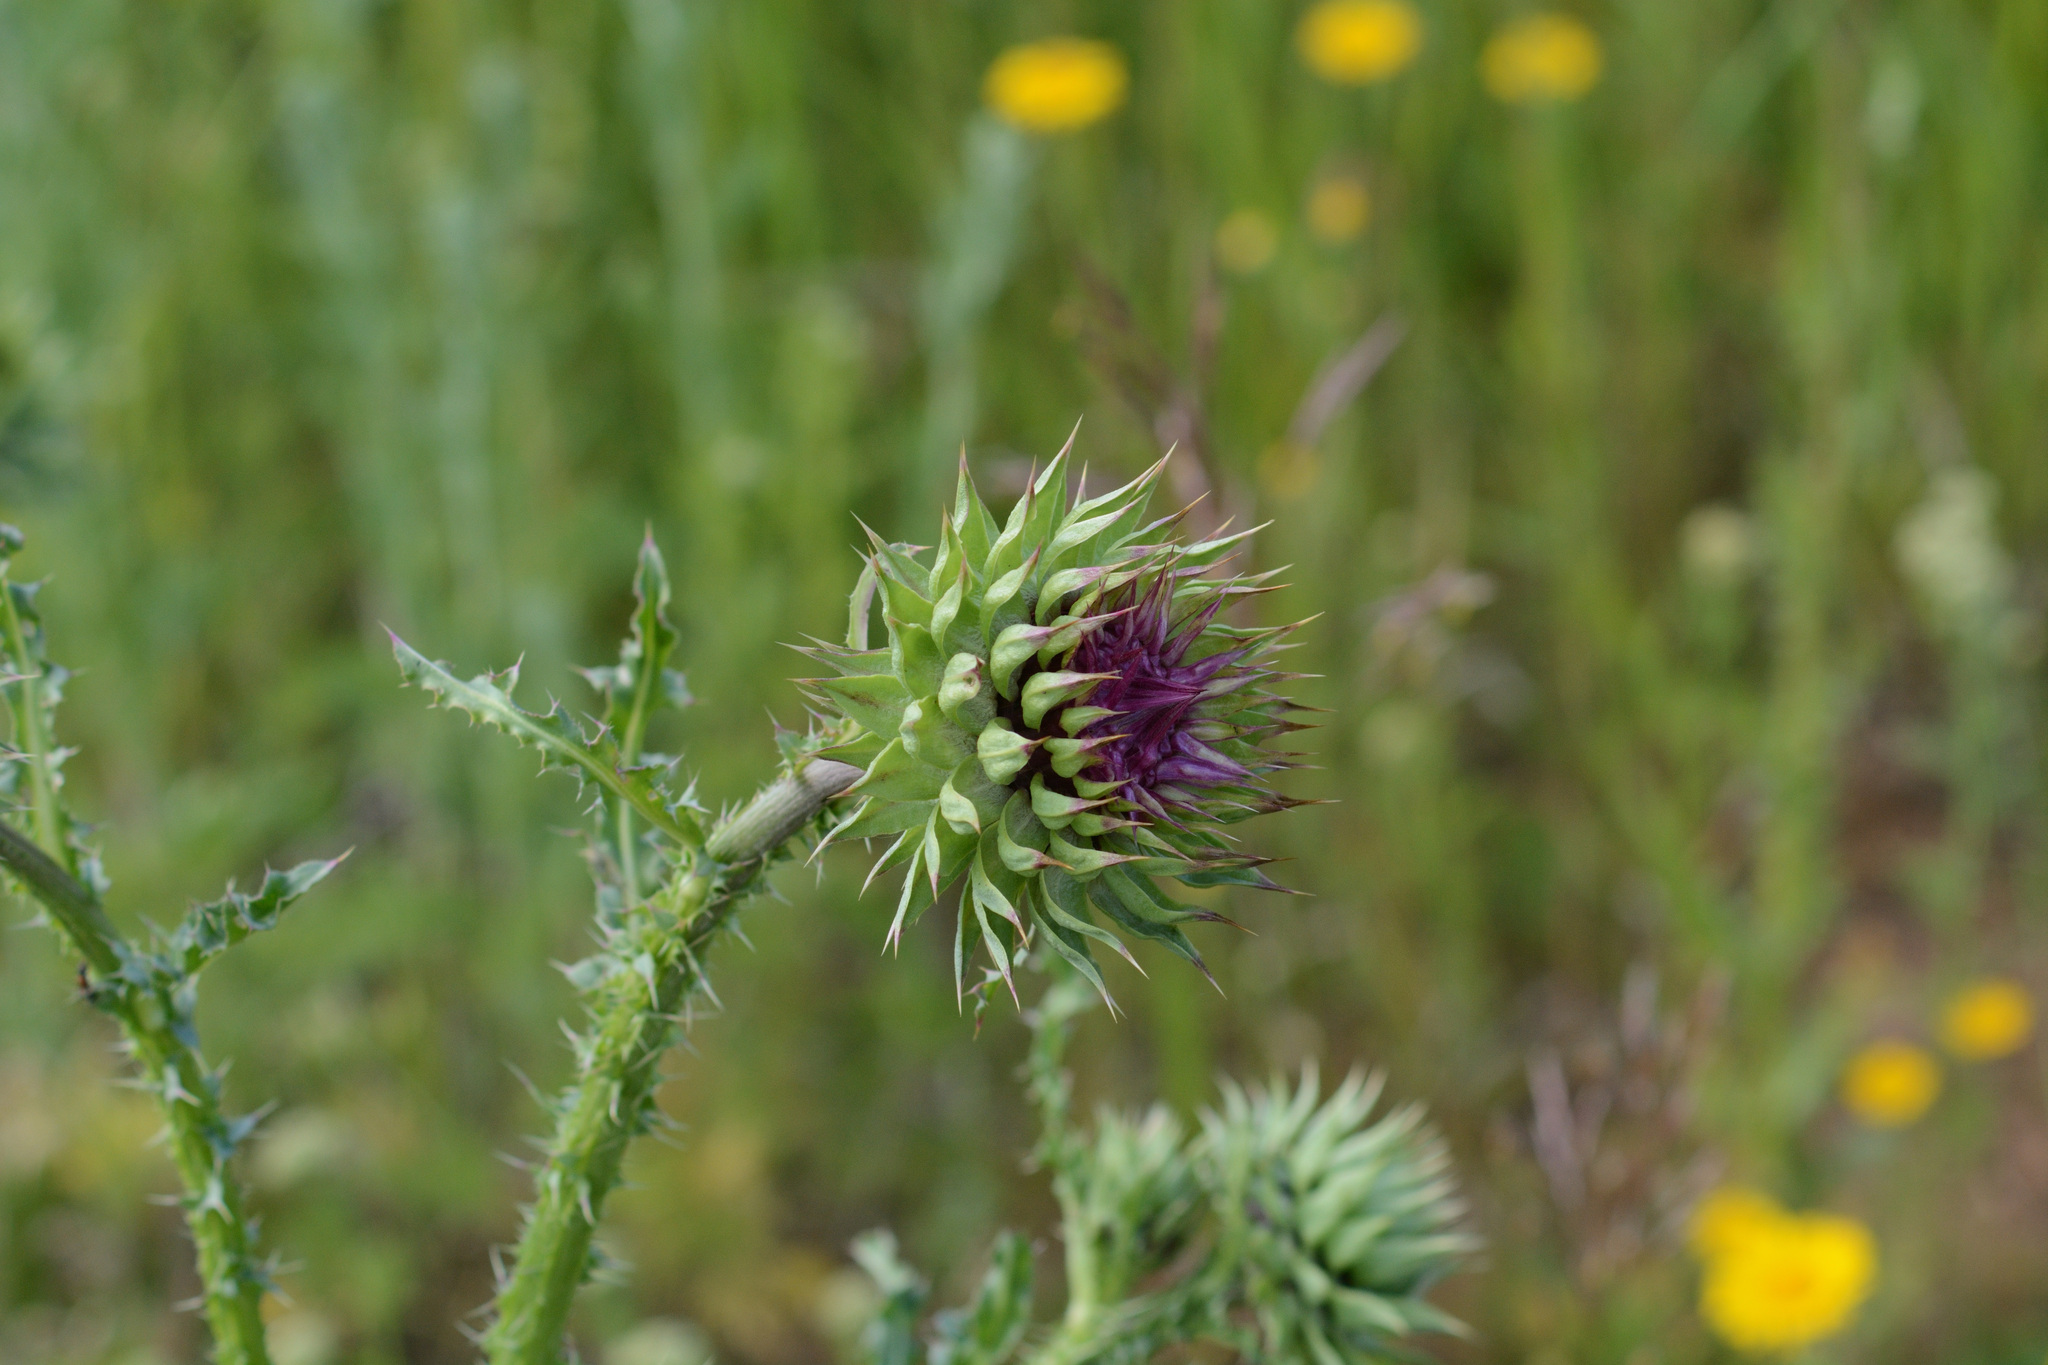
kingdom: Plantae
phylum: Tracheophyta
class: Magnoliopsida
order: Asterales
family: Asteraceae
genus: Carduus
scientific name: Carduus nutans
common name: Musk thistle
